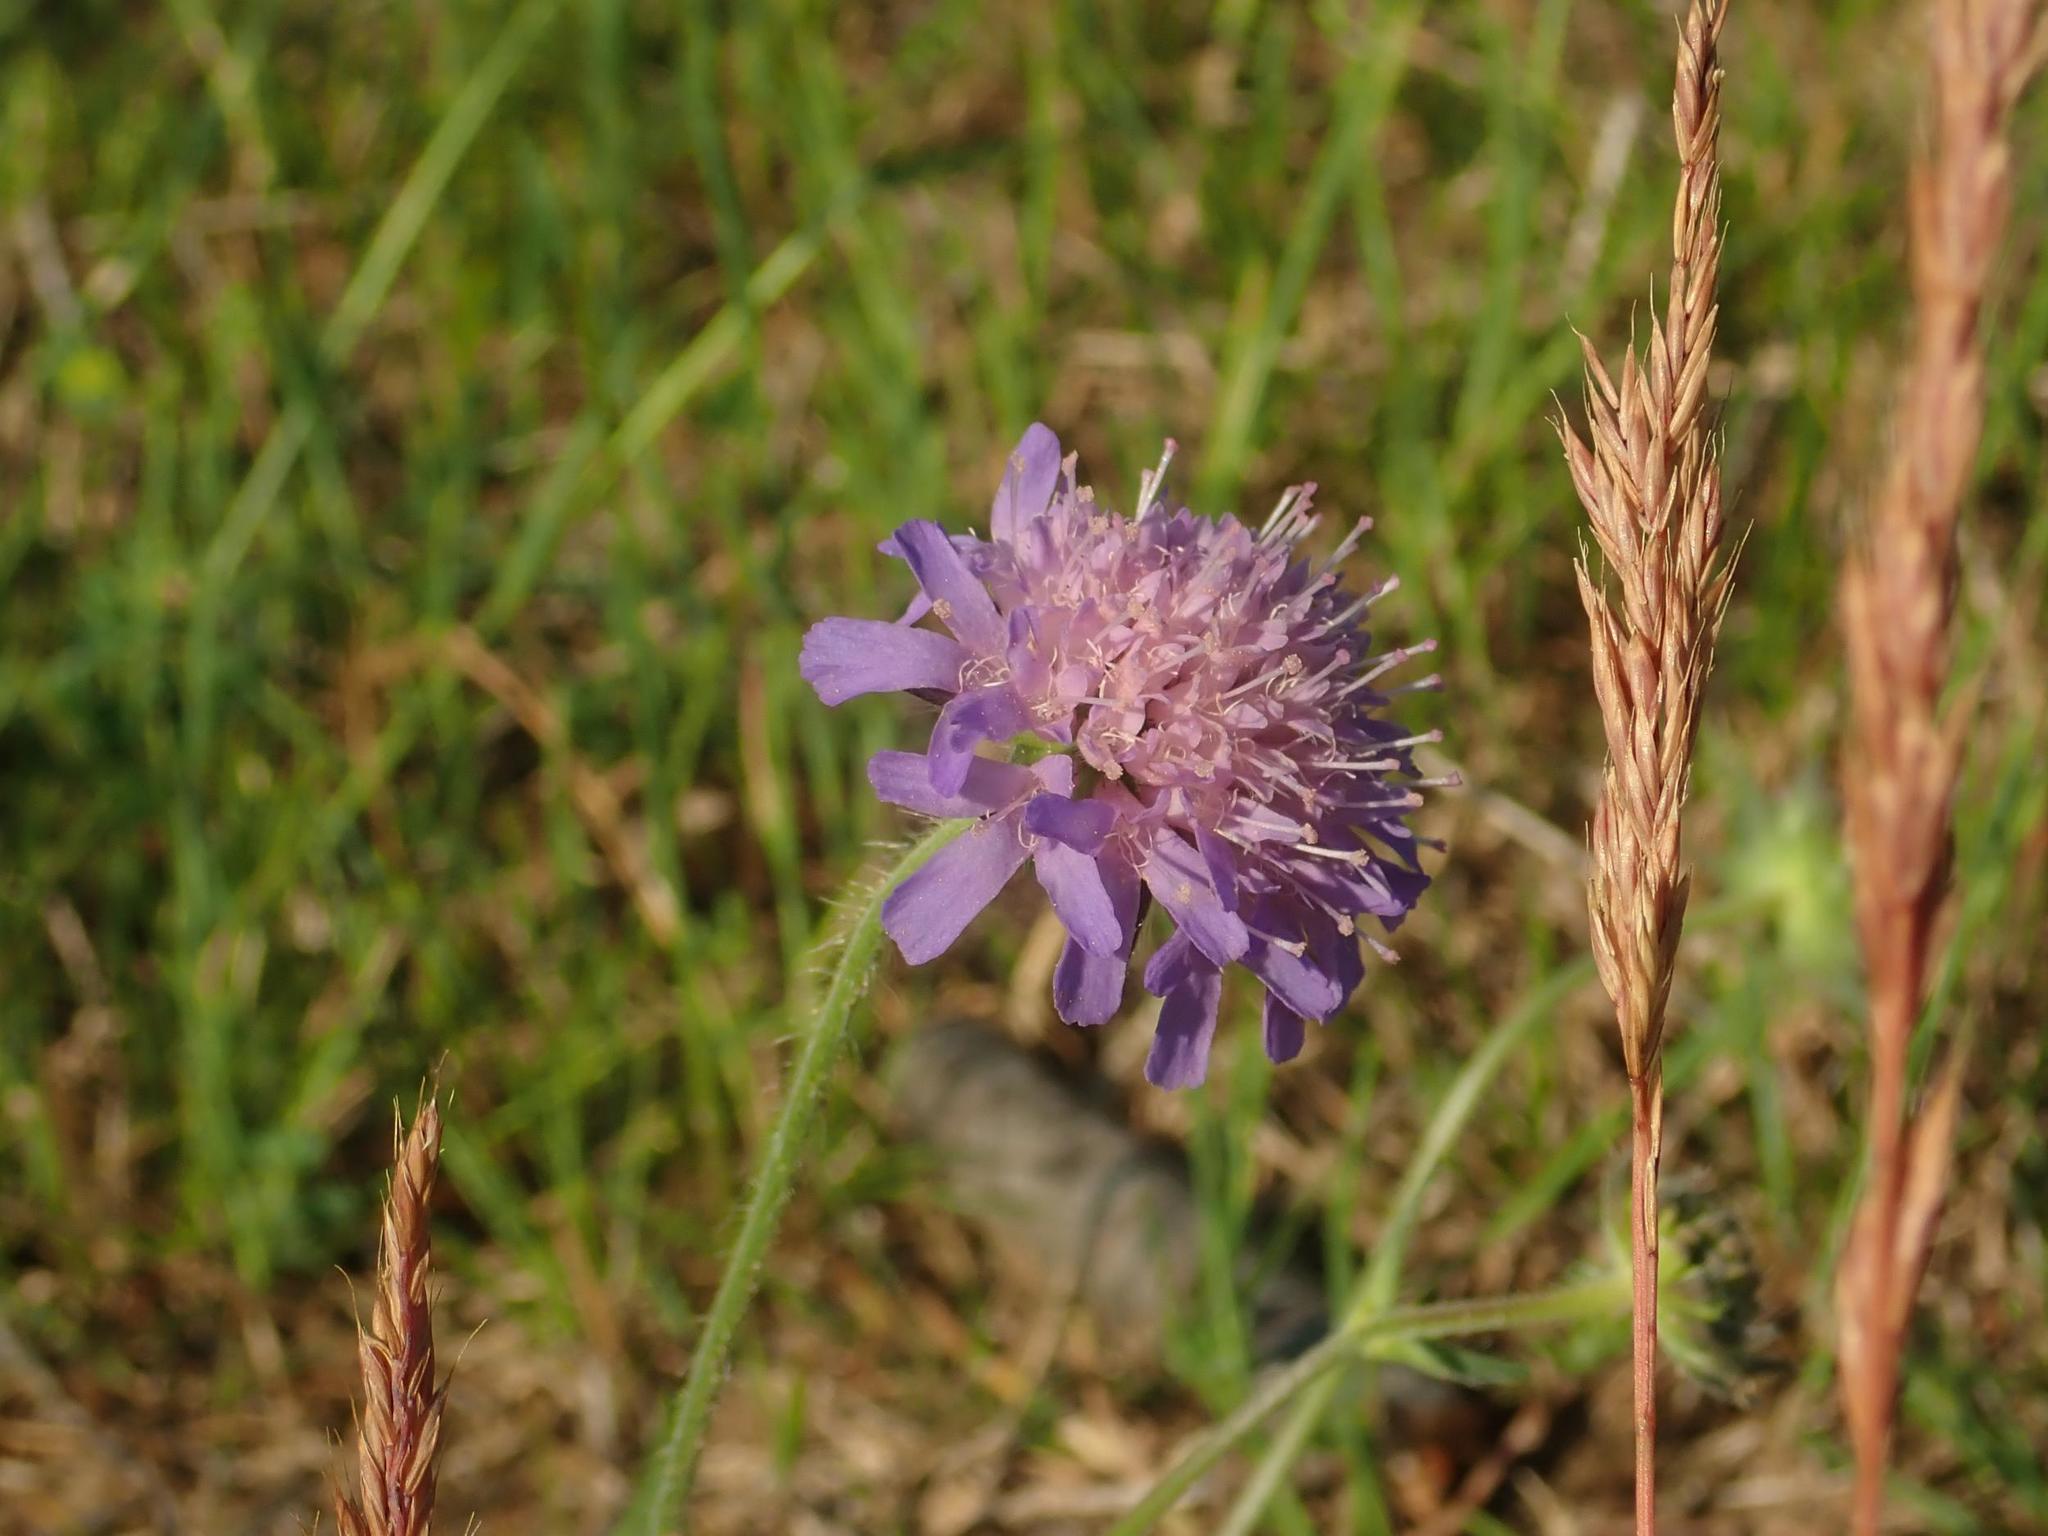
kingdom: Plantae
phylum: Tracheophyta
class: Magnoliopsida
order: Dipsacales
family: Caprifoliaceae
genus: Knautia
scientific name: Knautia arvensis
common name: Field scabiosa
